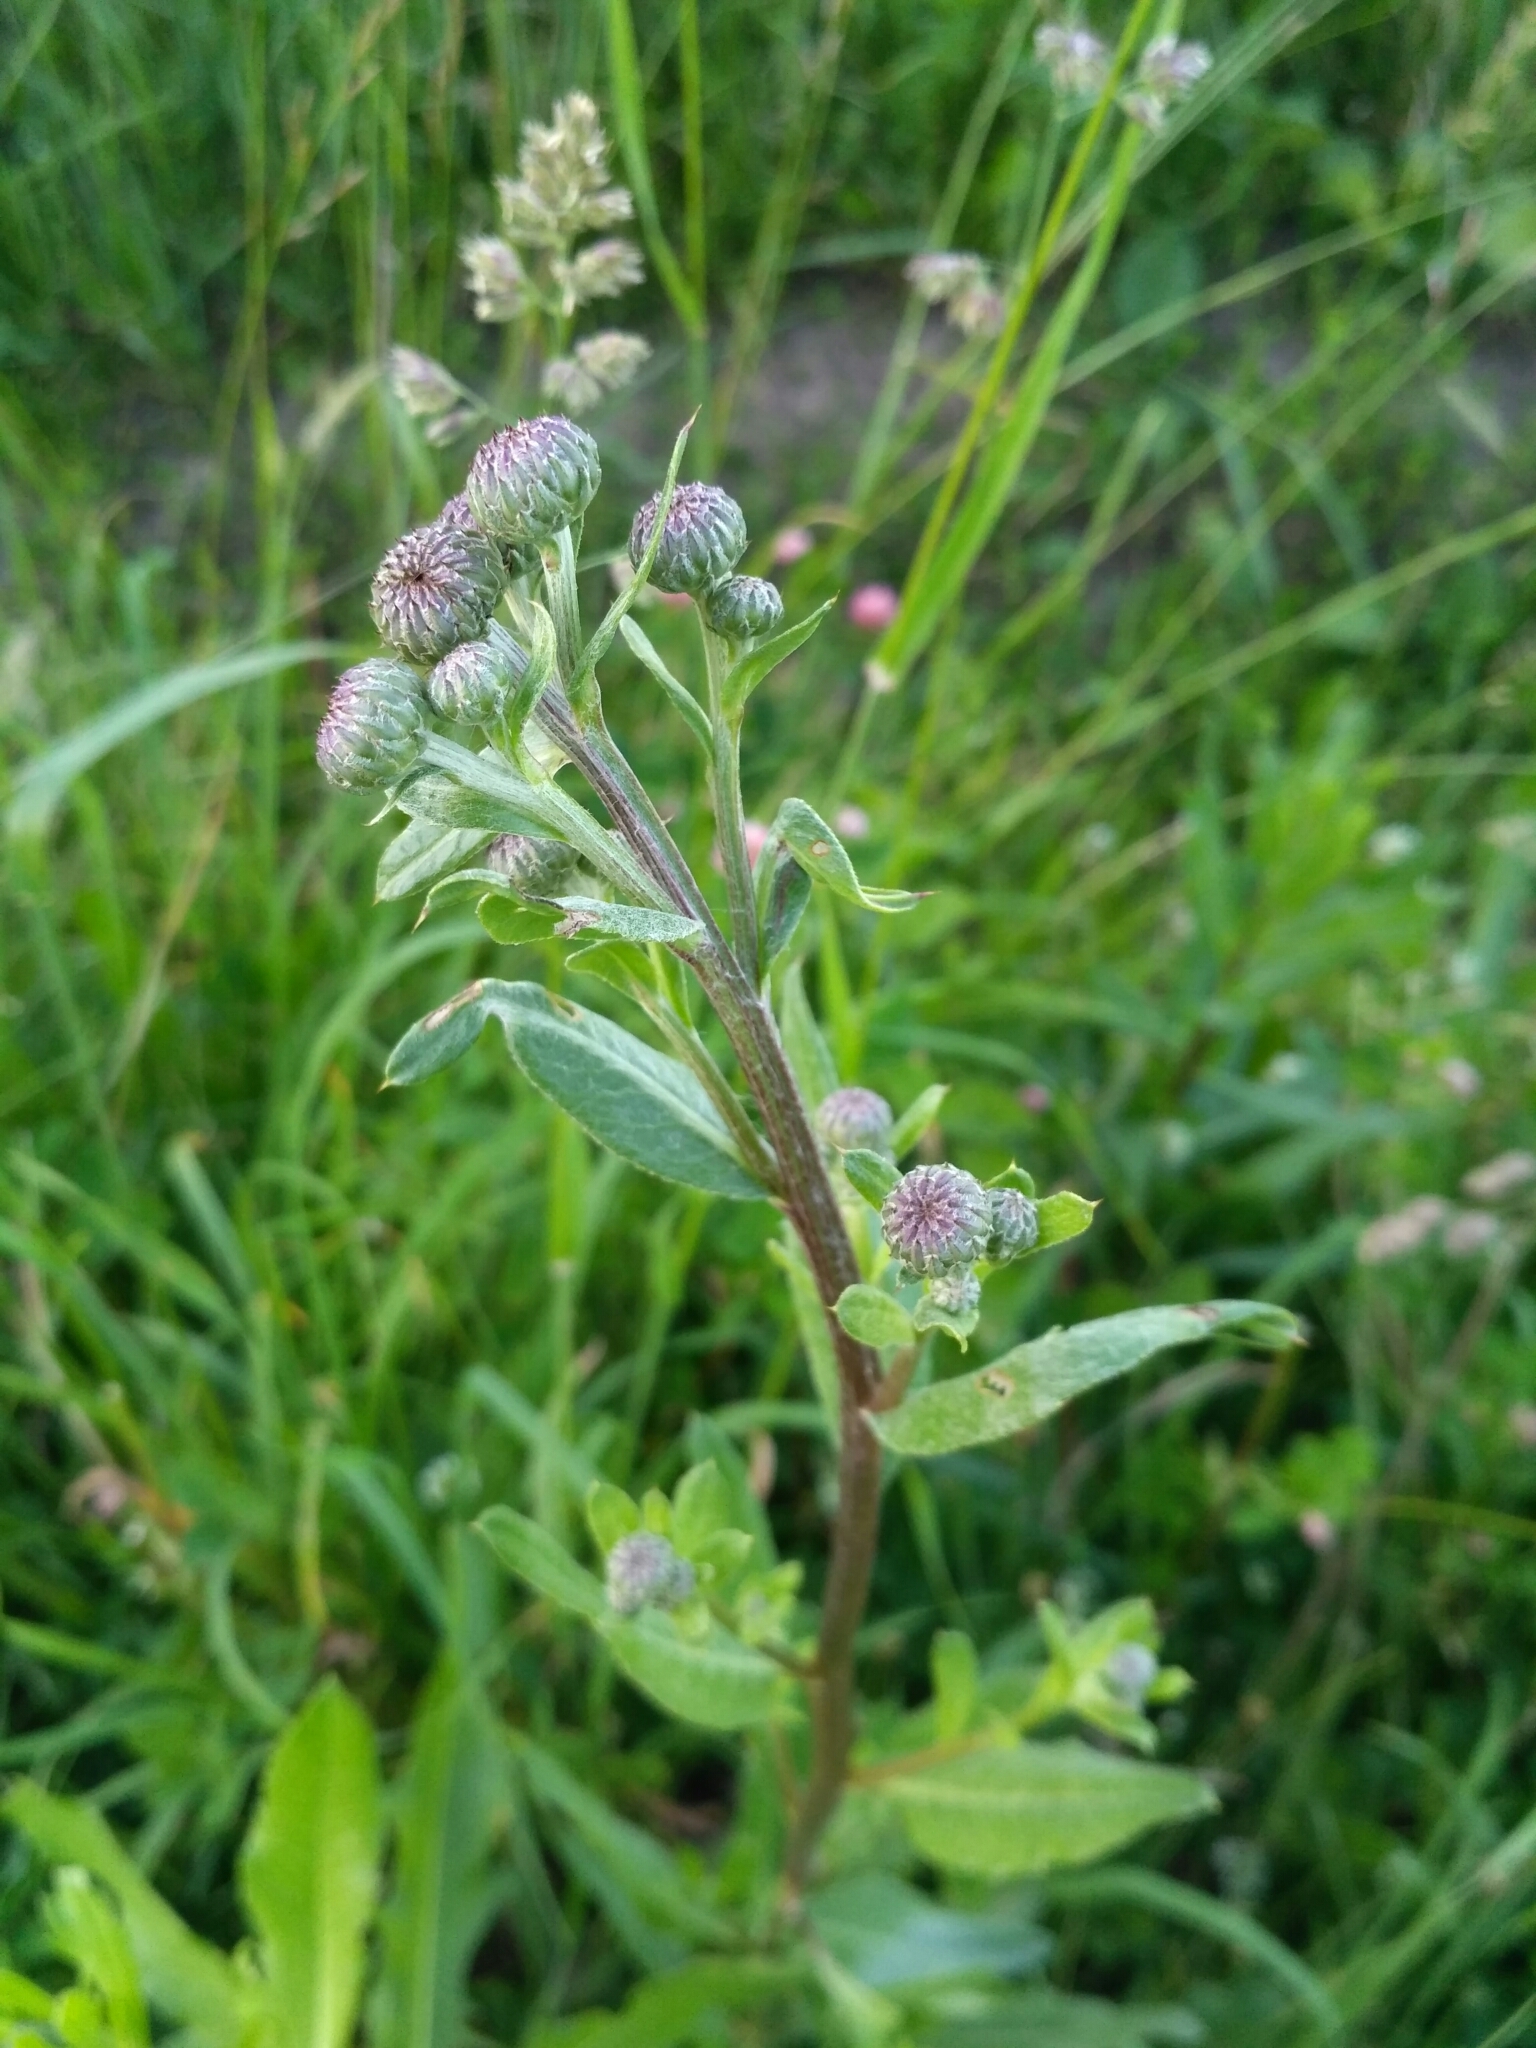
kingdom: Plantae
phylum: Tracheophyta
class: Magnoliopsida
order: Asterales
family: Asteraceae
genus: Cirsium
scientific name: Cirsium arvense
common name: Creeping thistle
